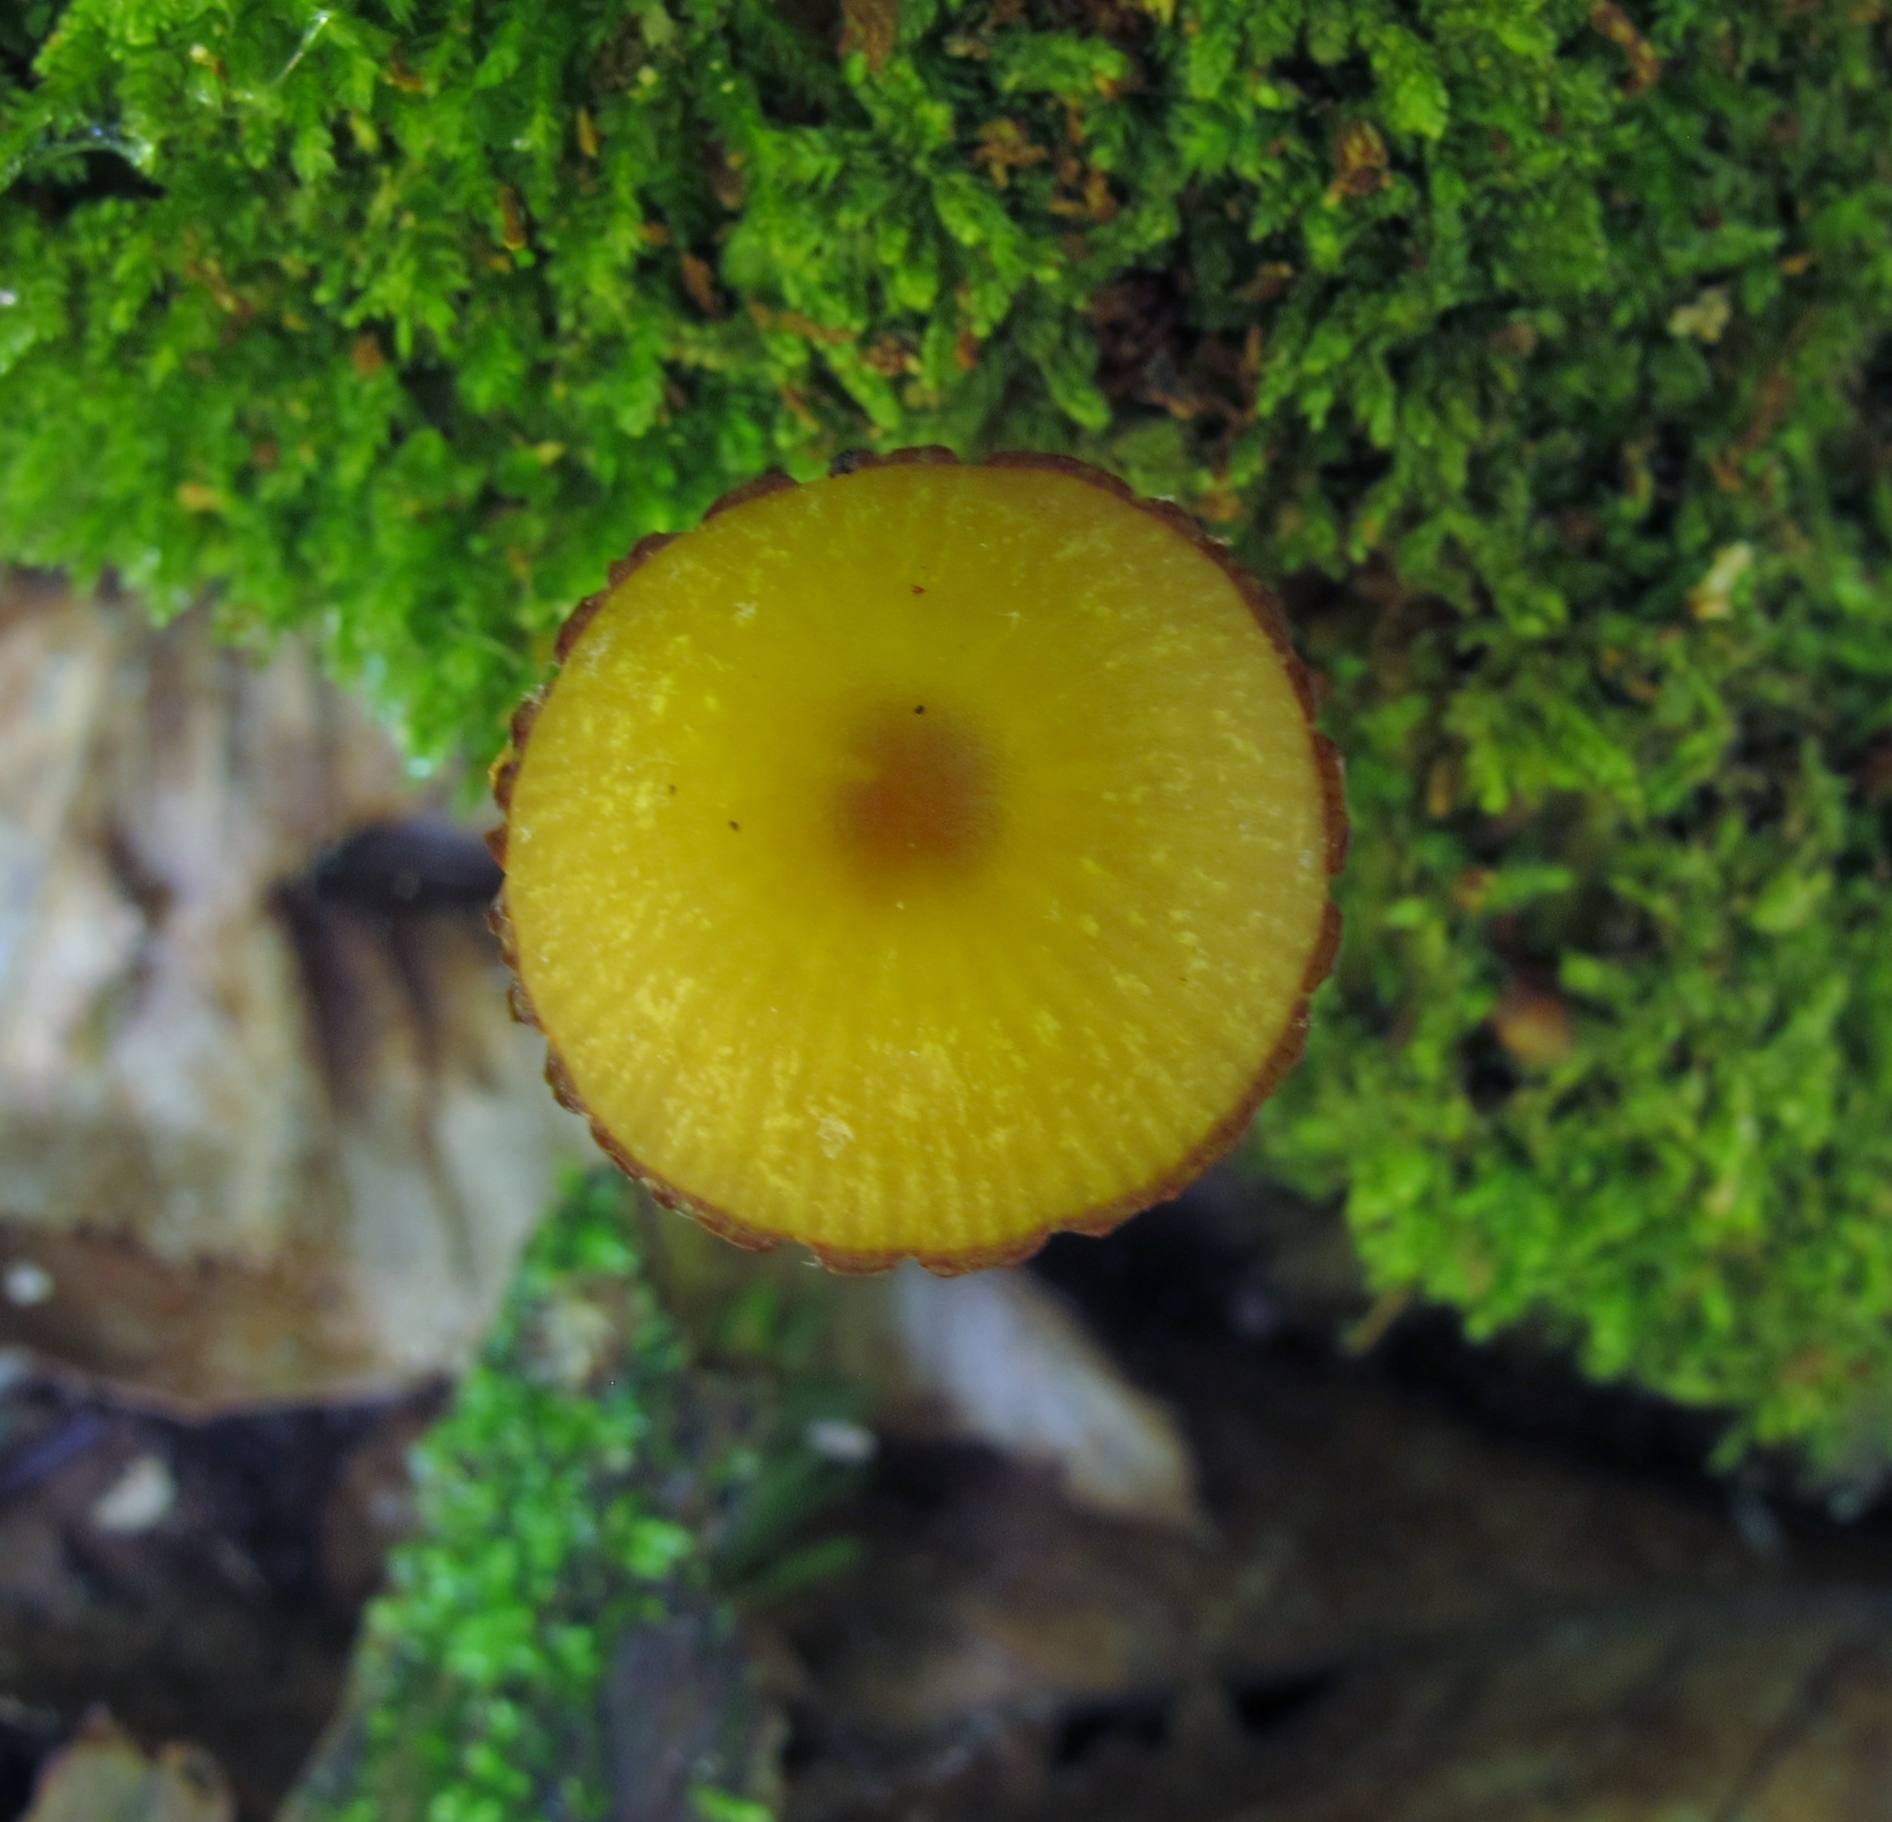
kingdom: Fungi
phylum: Basidiomycota
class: Agaricomycetes
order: Agaricales
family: Hygrophoraceae
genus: Chromosera
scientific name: Chromosera cyanophylla
